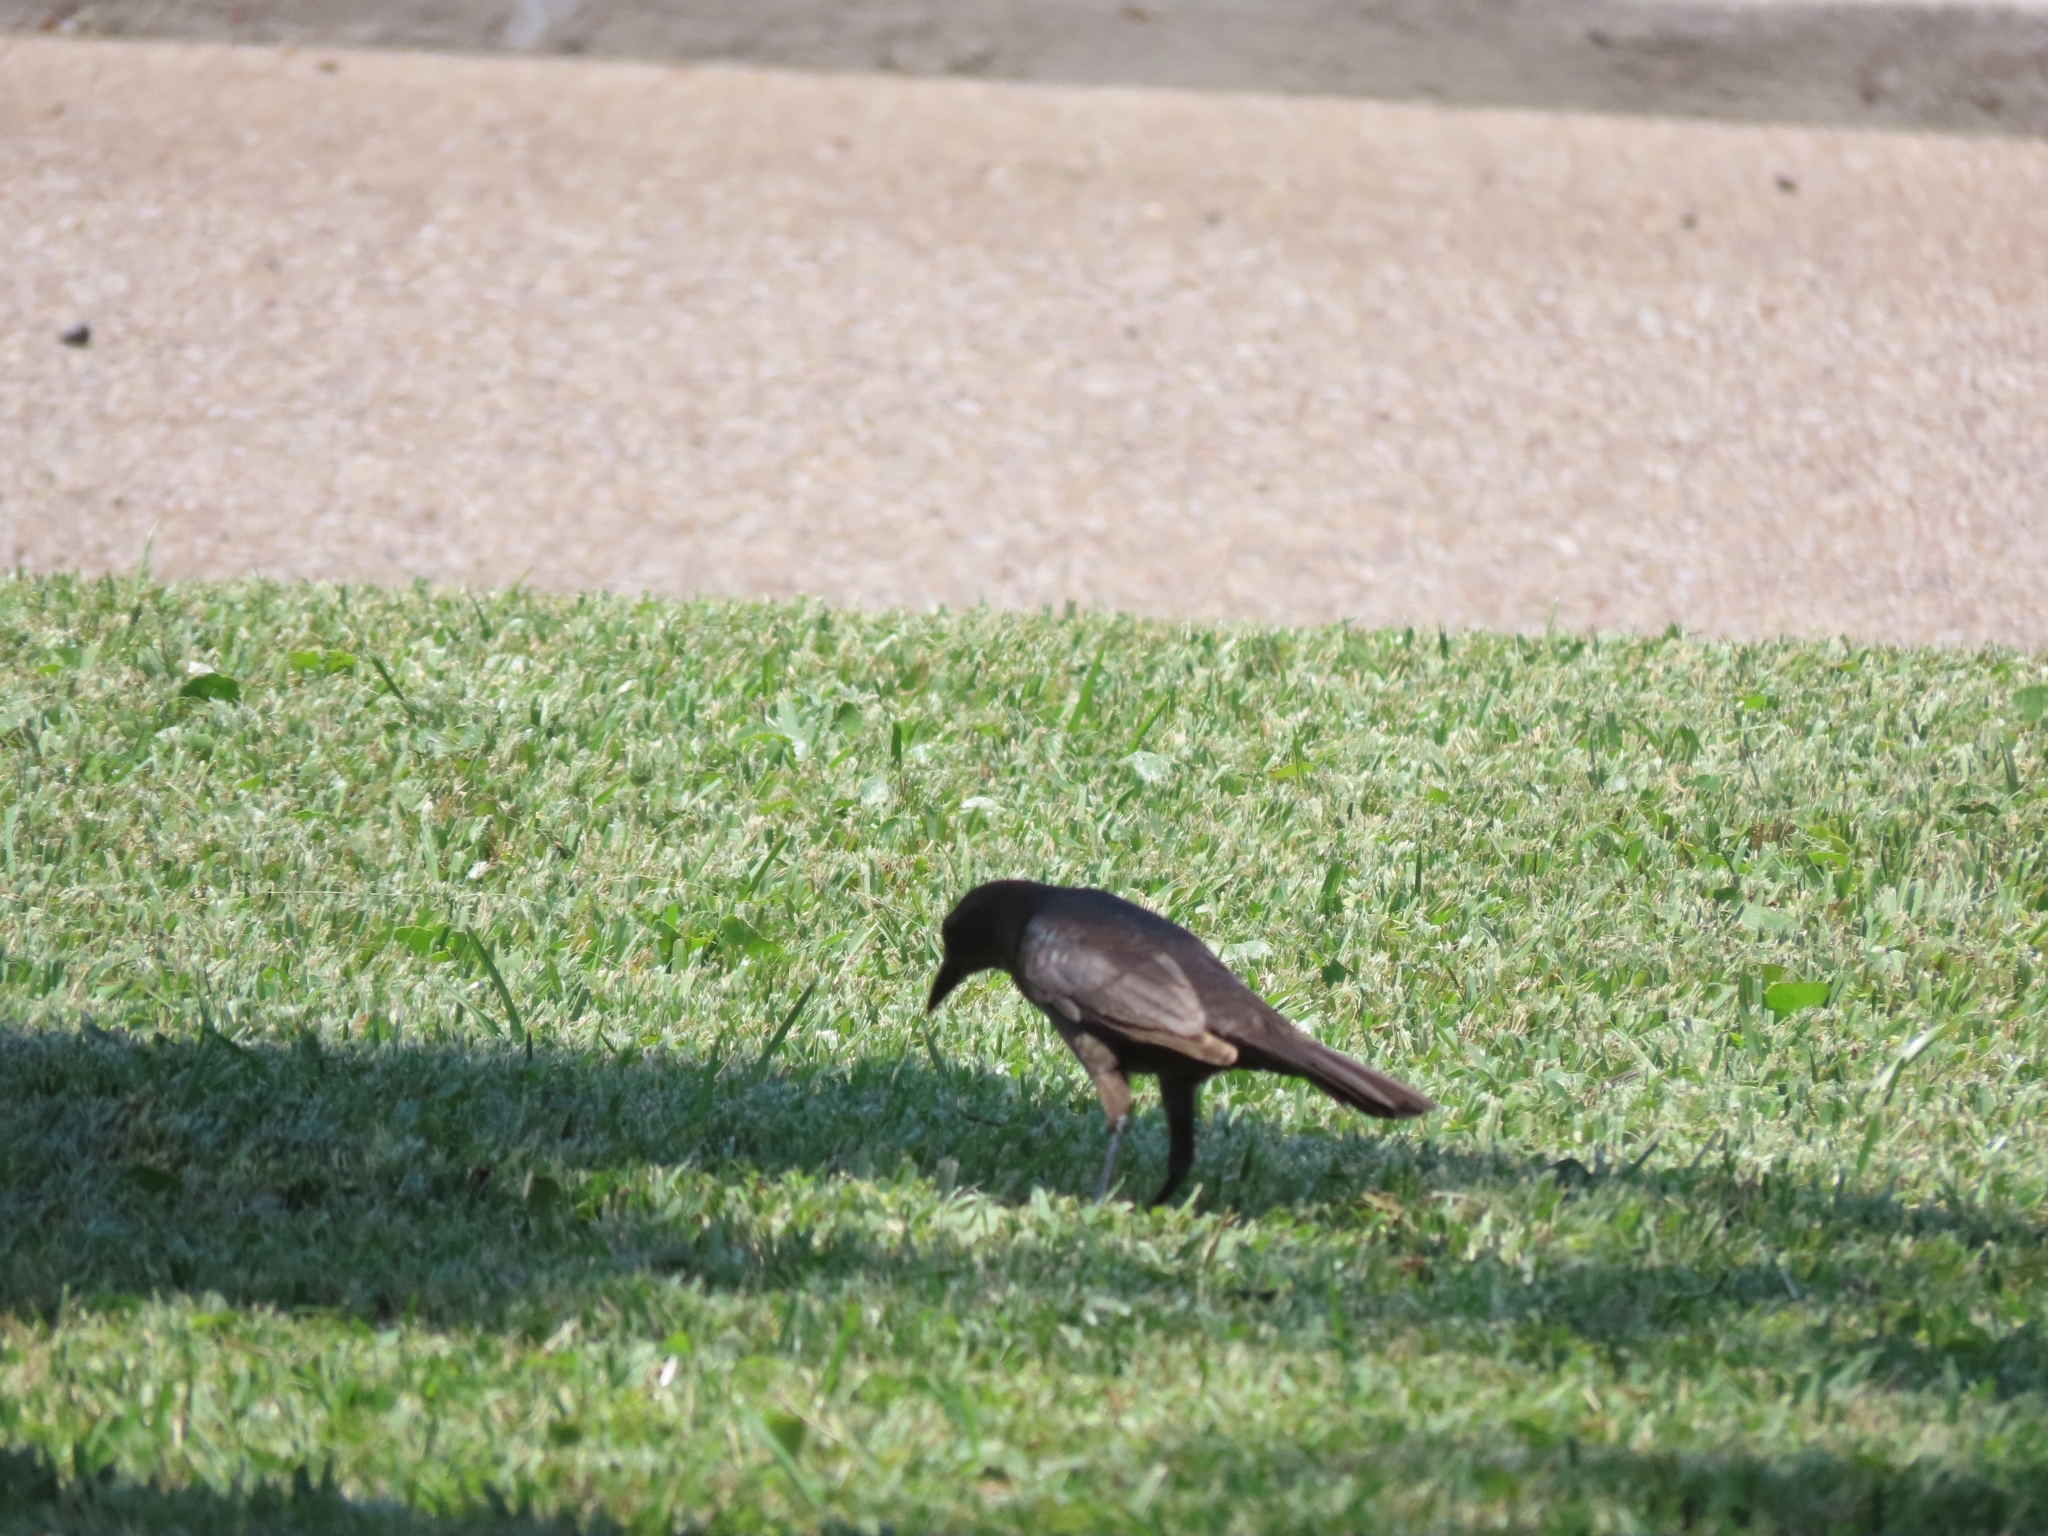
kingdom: Animalia
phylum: Chordata
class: Aves
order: Passeriformes
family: Icteridae
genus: Quiscalus
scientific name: Quiscalus mexicanus
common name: Great-tailed grackle
